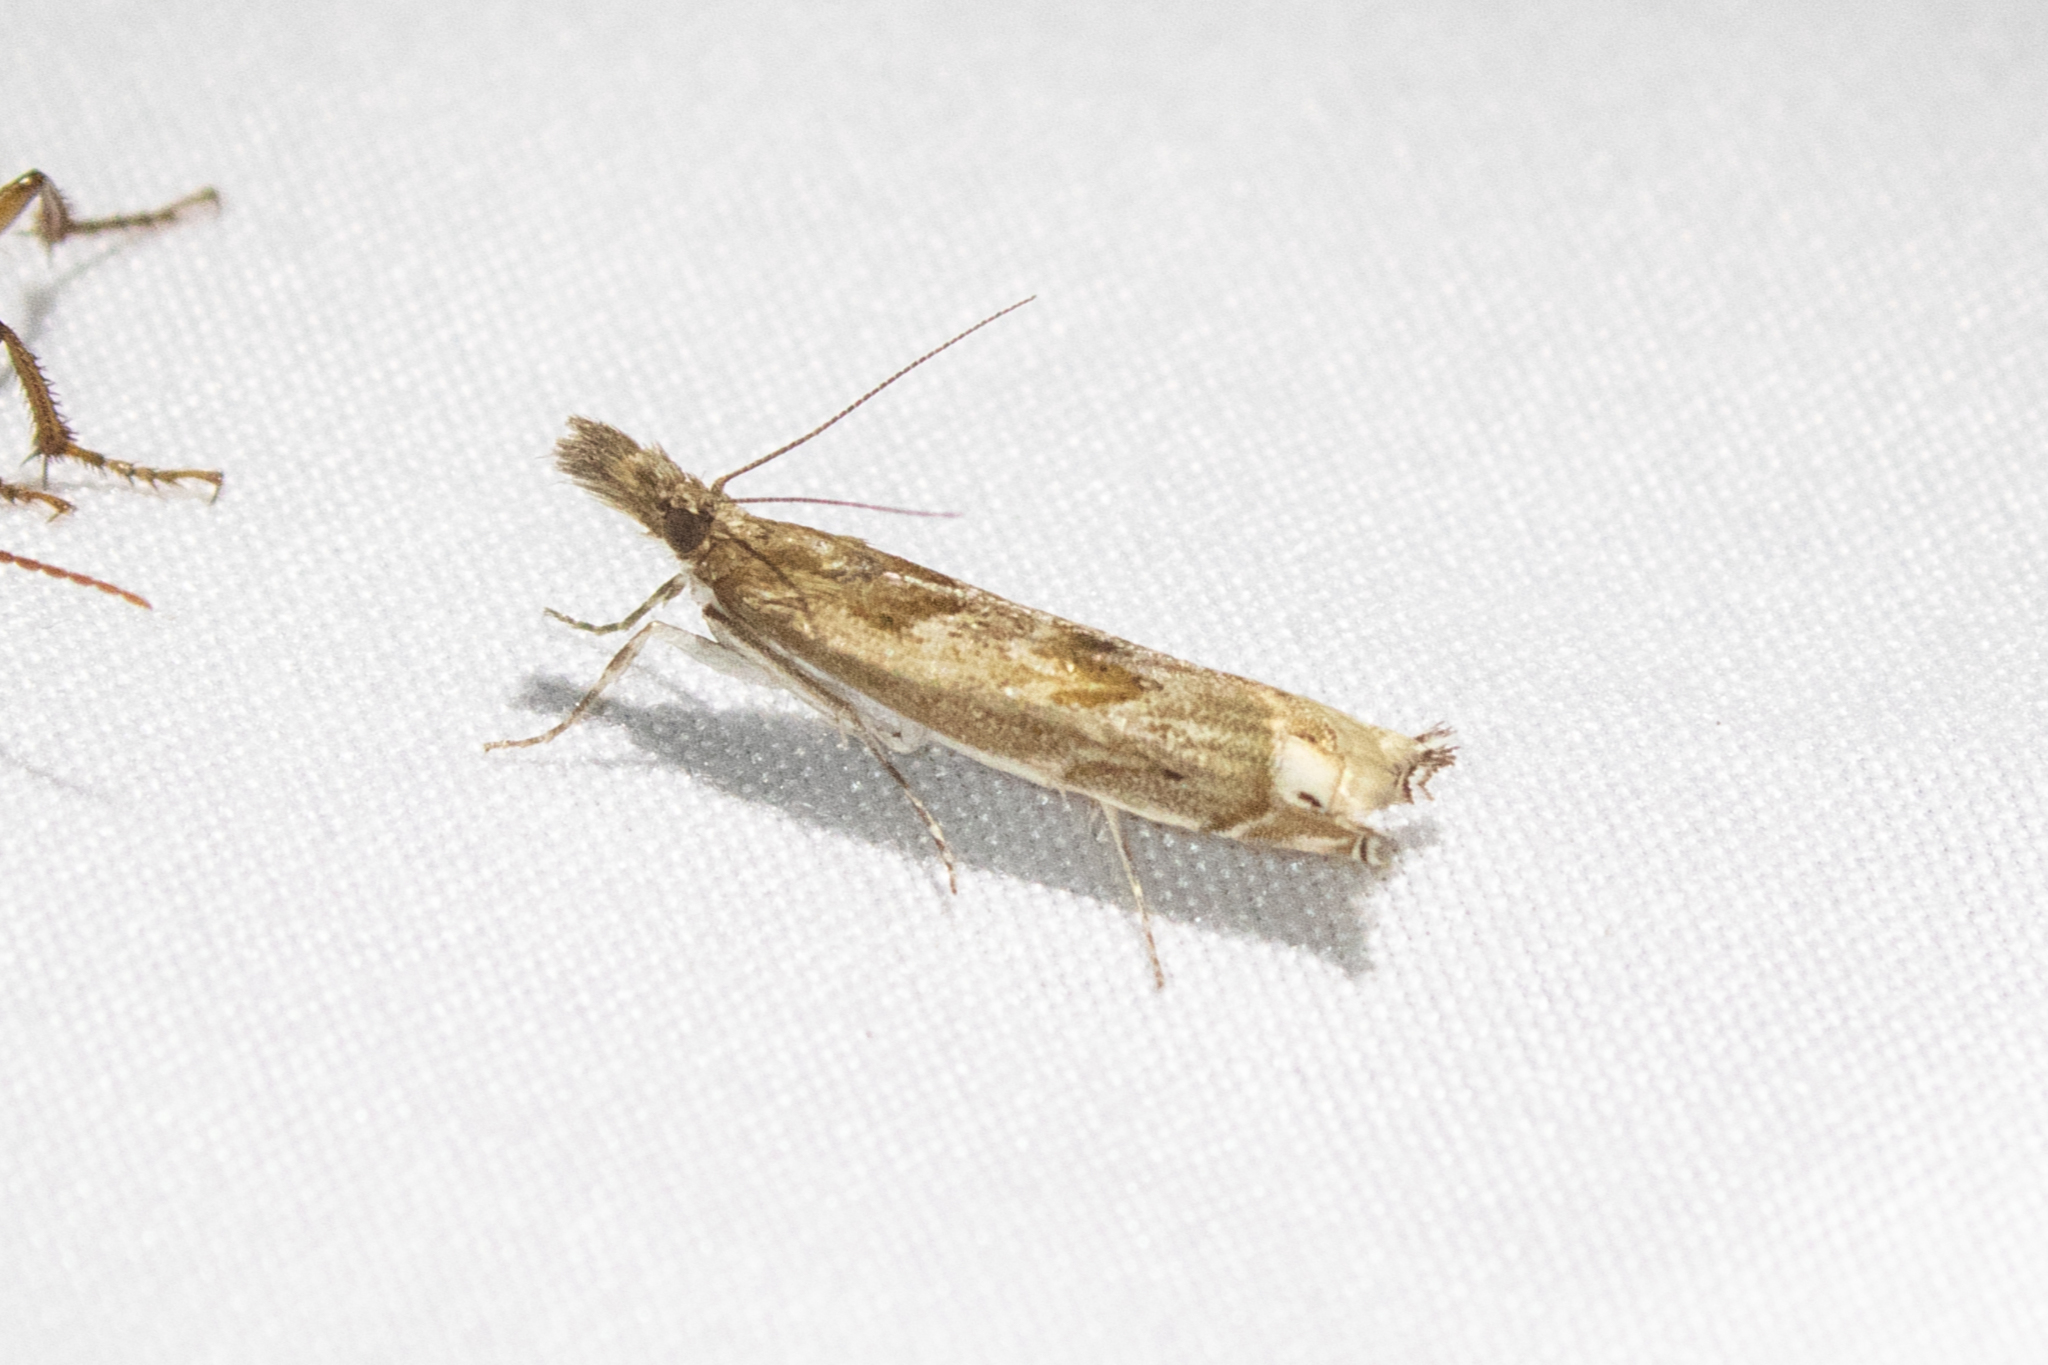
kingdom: Animalia
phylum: Arthropoda
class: Insecta
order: Lepidoptera
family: Crambidae
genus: Prionapteryx
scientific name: Prionapteryx achatina
